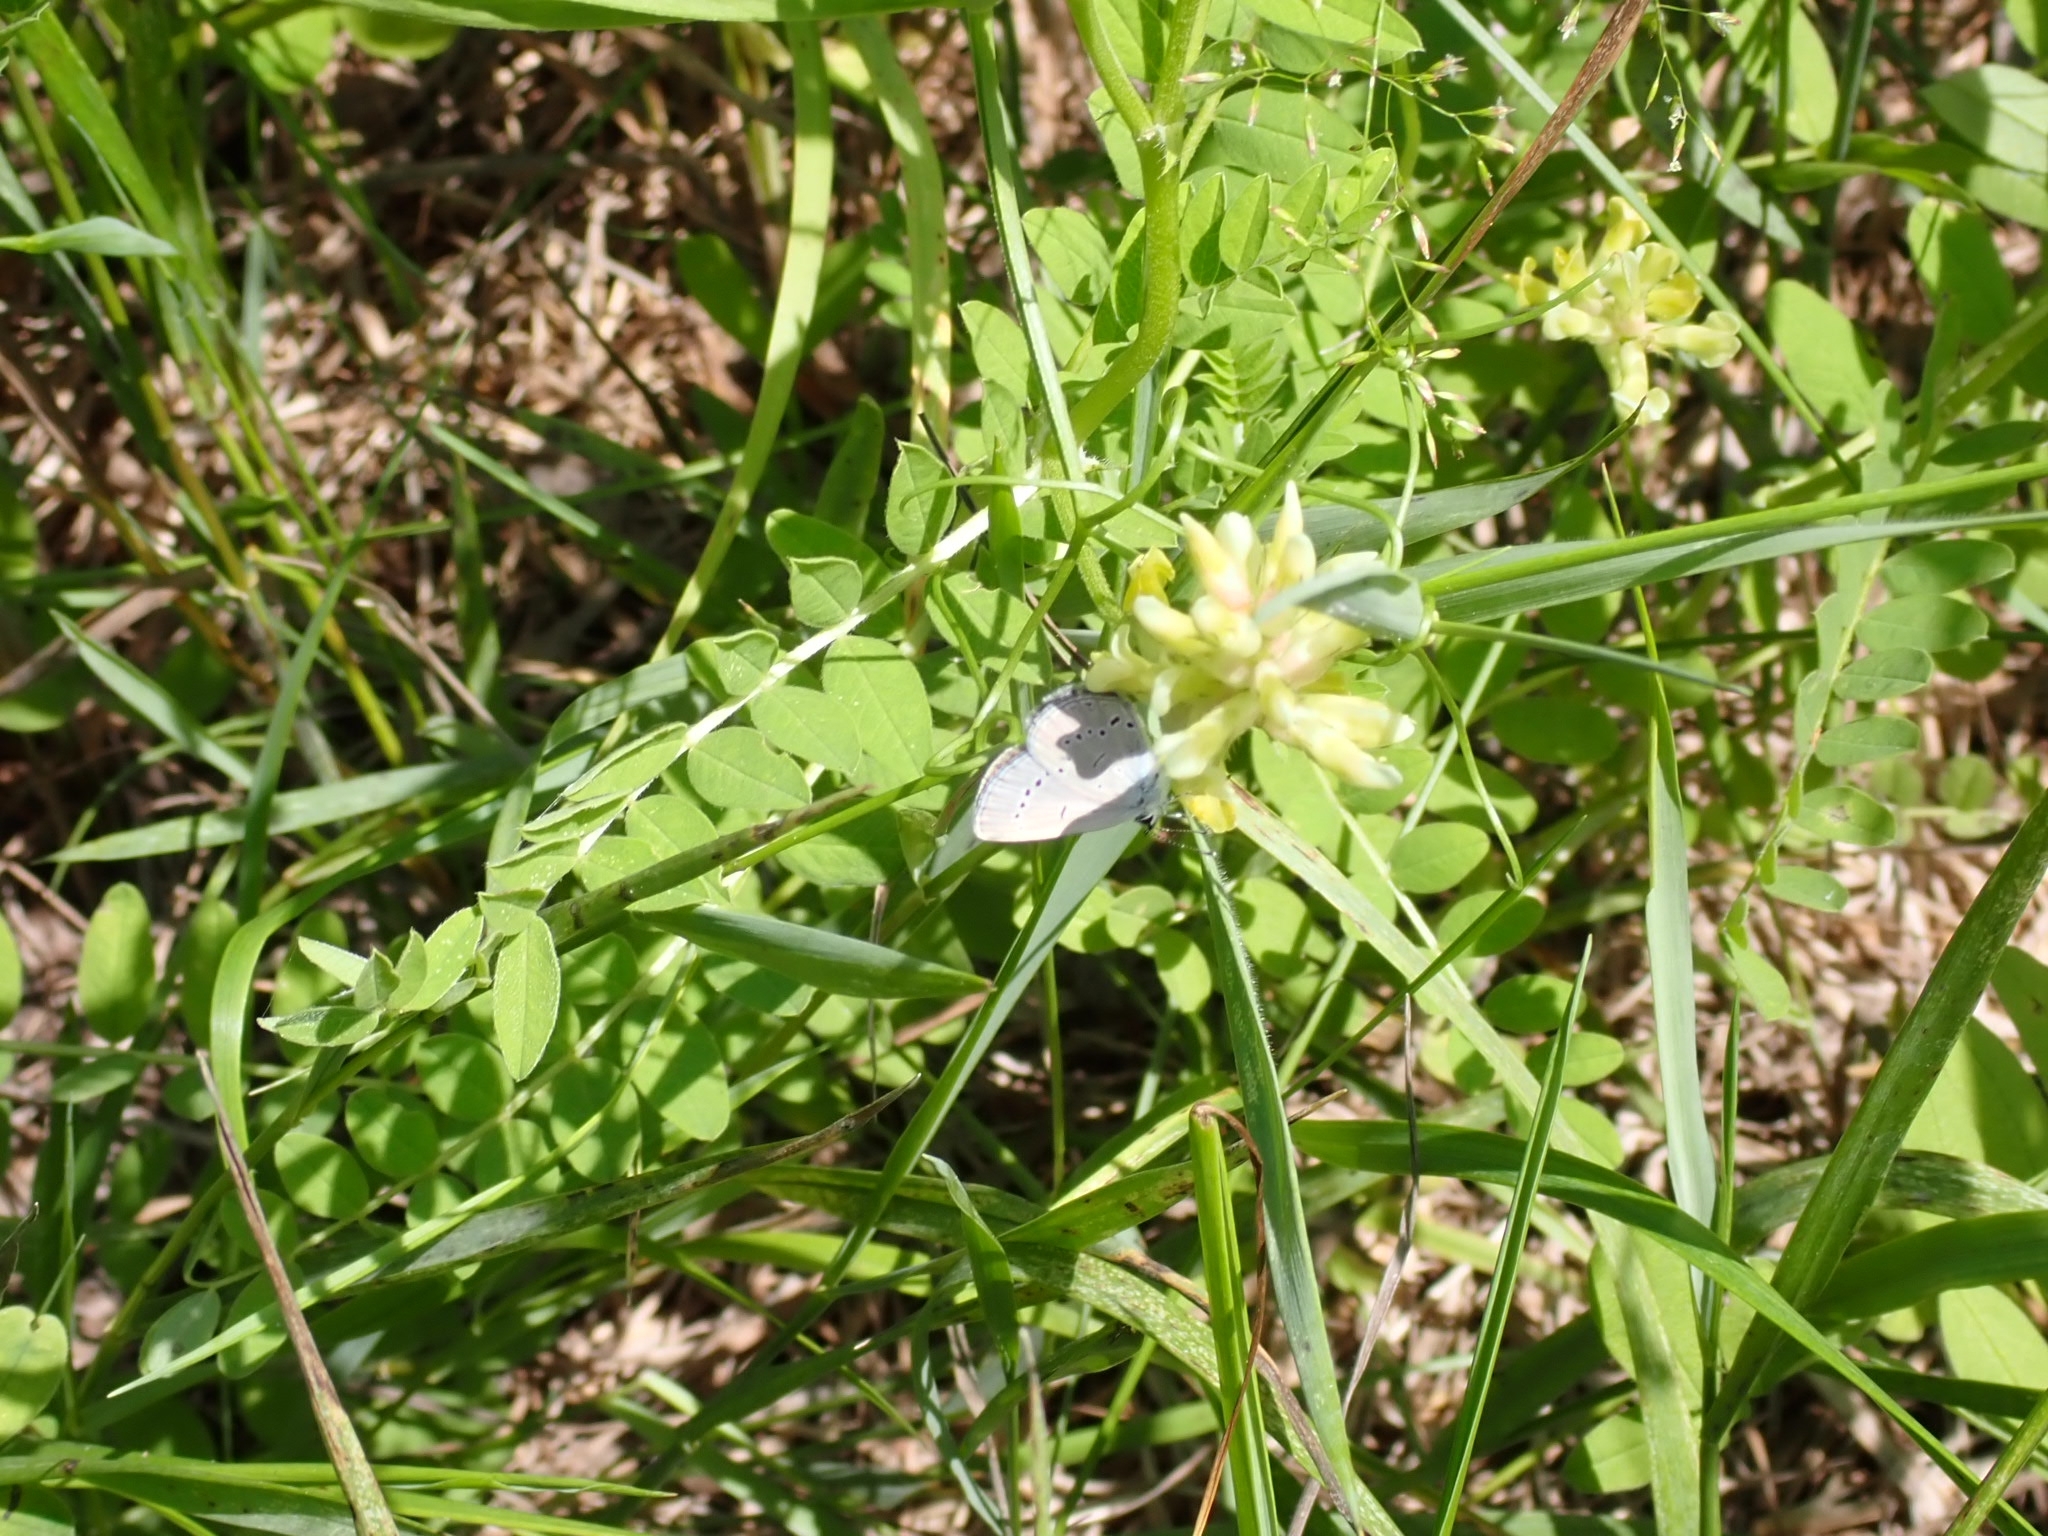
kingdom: Animalia
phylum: Arthropoda
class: Insecta
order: Lepidoptera
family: Lycaenidae
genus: Cupido
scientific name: Cupido minimus
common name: Small blue
